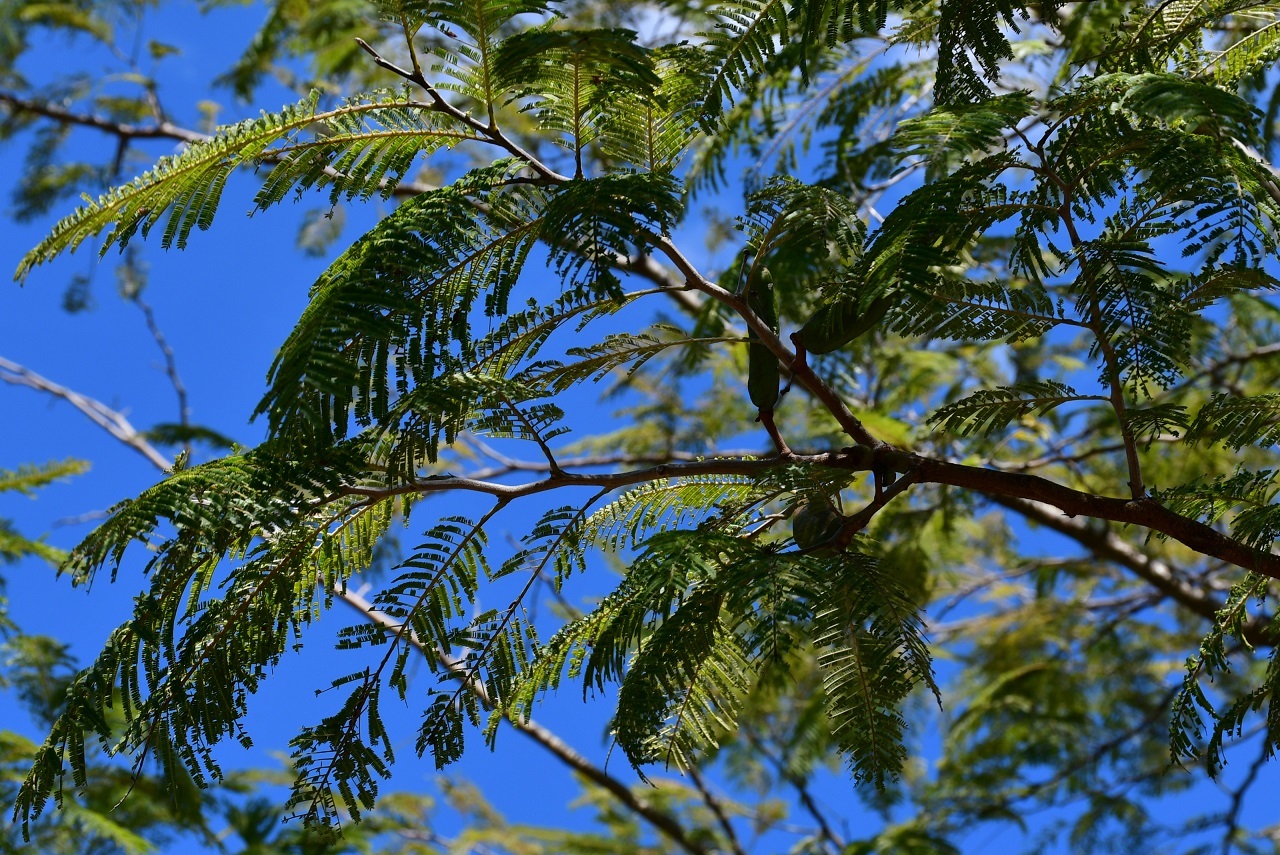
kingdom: Plantae
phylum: Tracheophyta
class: Magnoliopsida
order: Fabales
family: Fabaceae
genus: Vachellia
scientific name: Vachellia pennatula
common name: Fern-leaf acacia
